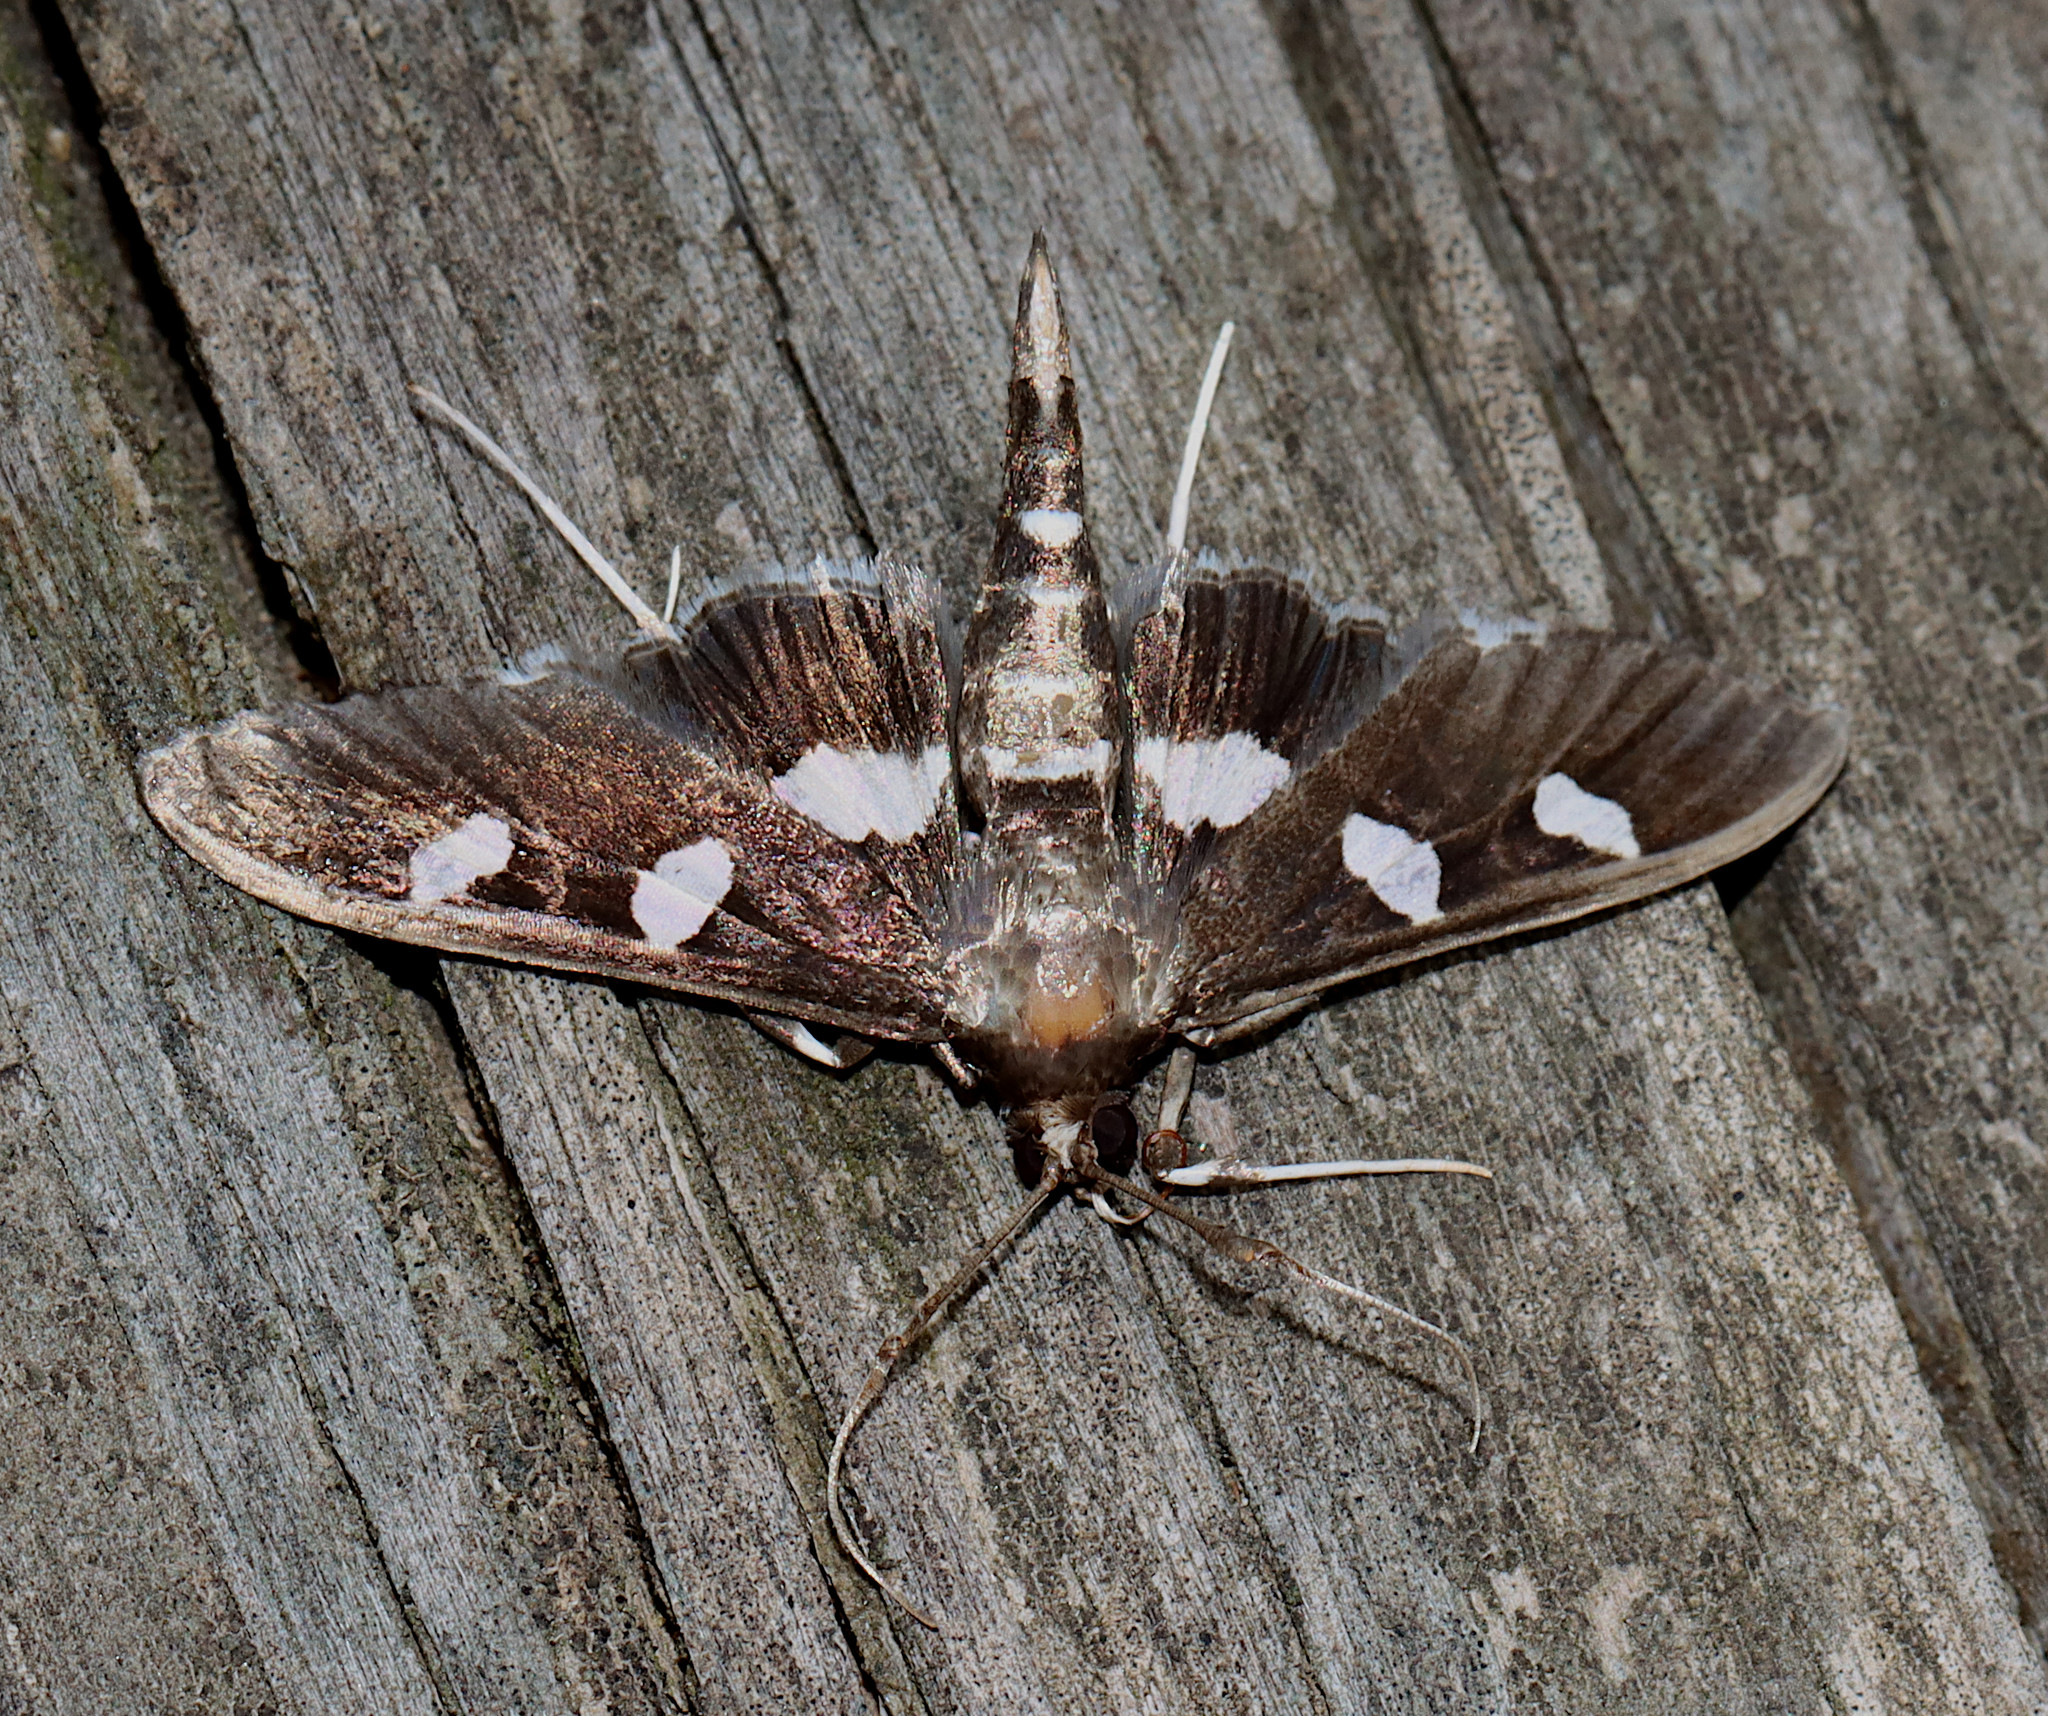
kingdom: Animalia
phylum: Arthropoda
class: Insecta
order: Lepidoptera
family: Crambidae
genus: Desmia
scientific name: Desmia
